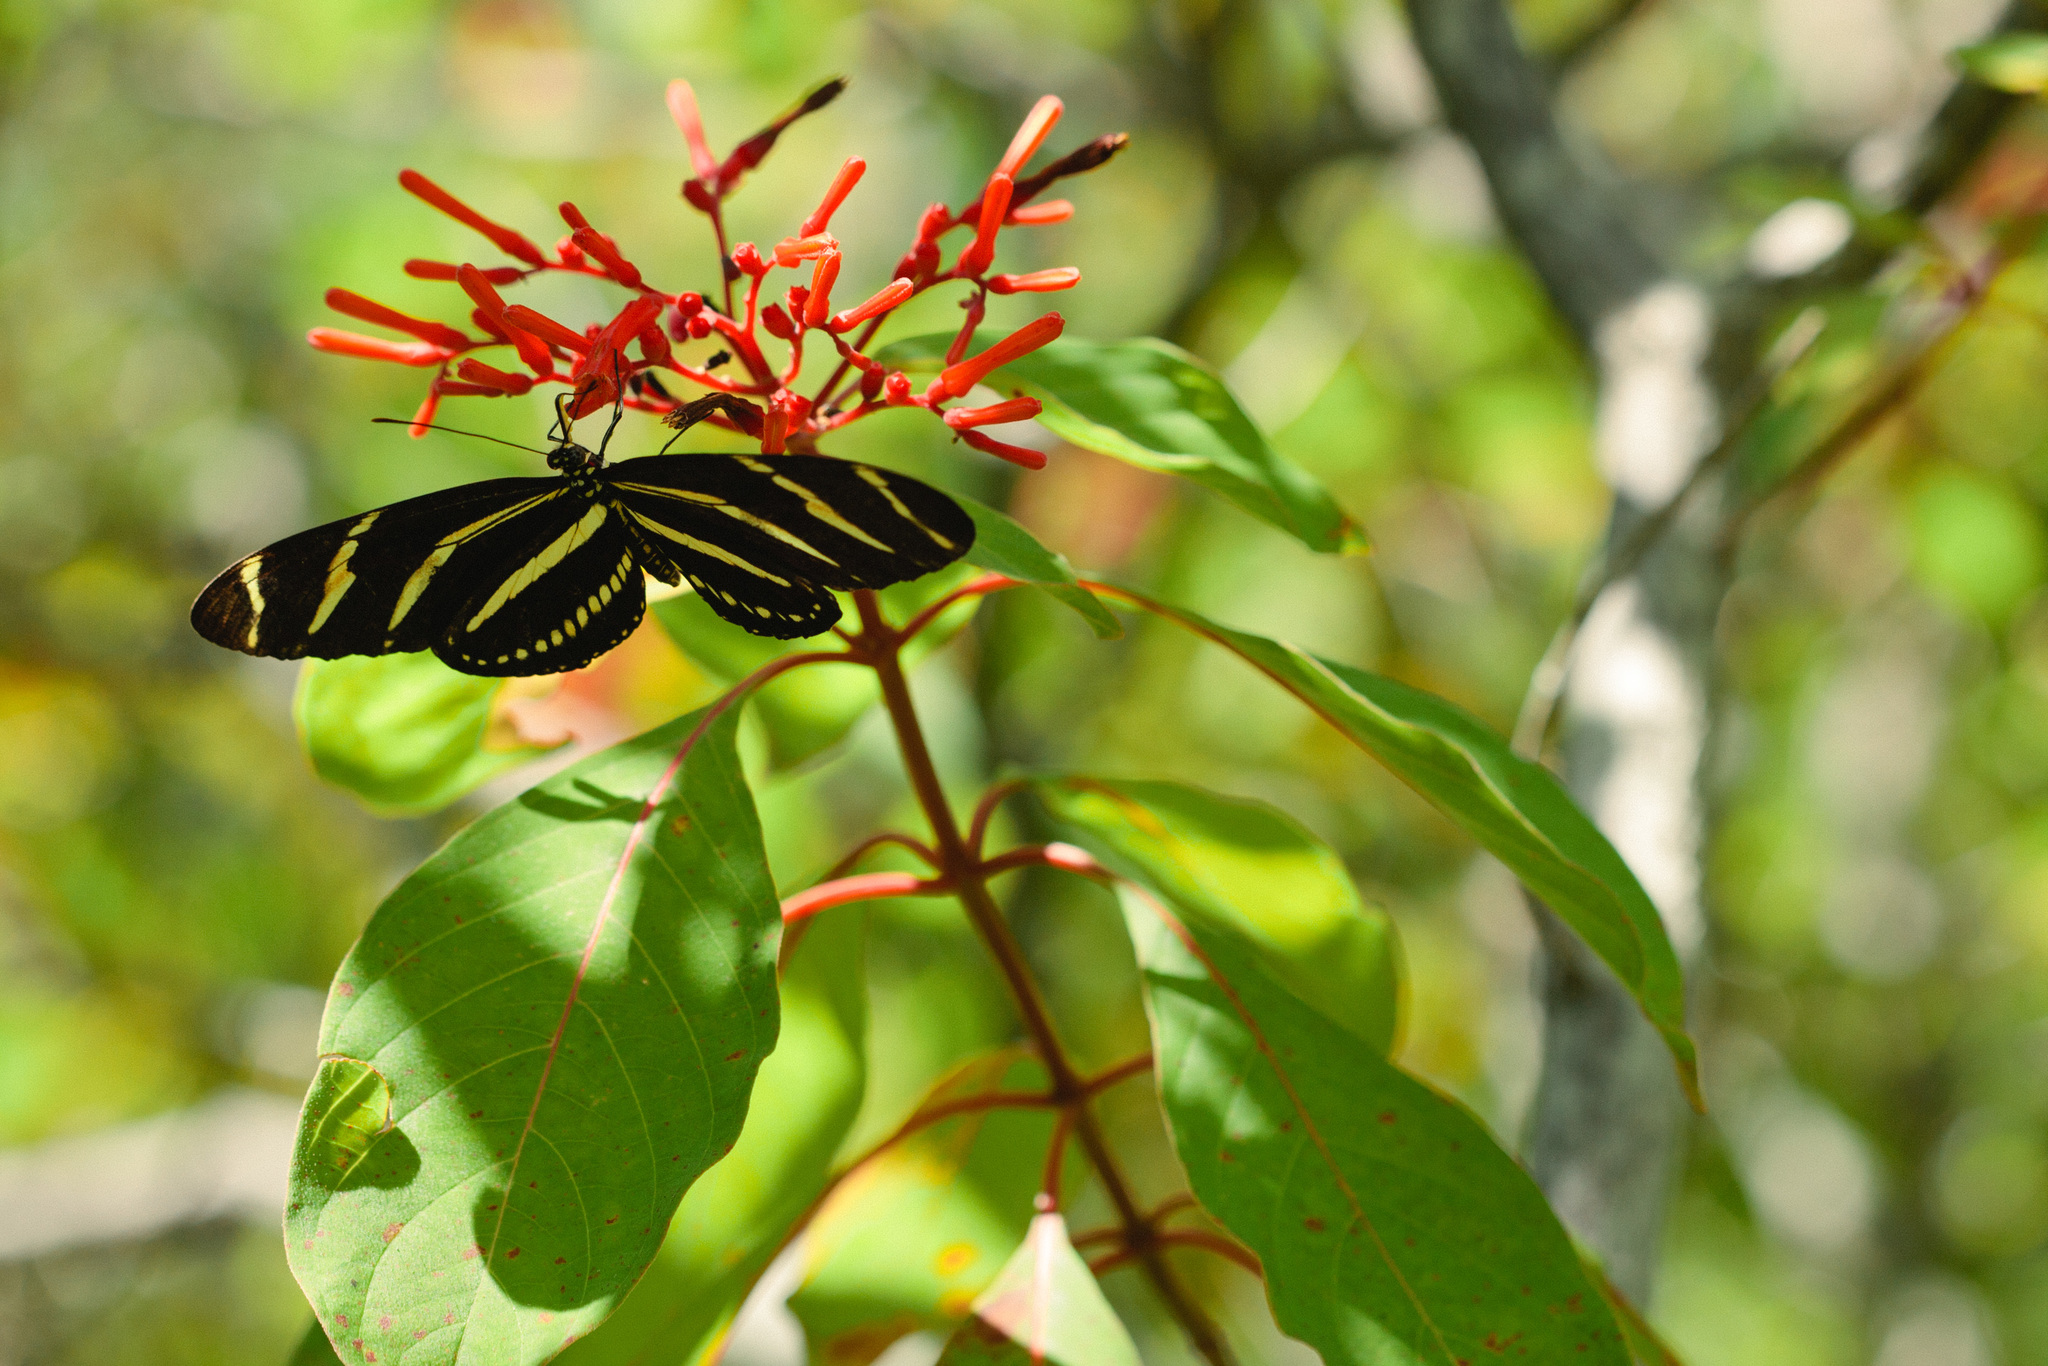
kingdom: Animalia
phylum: Arthropoda
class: Insecta
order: Lepidoptera
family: Nymphalidae
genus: Heliconius
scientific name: Heliconius charithonia
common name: Zebra long wing
